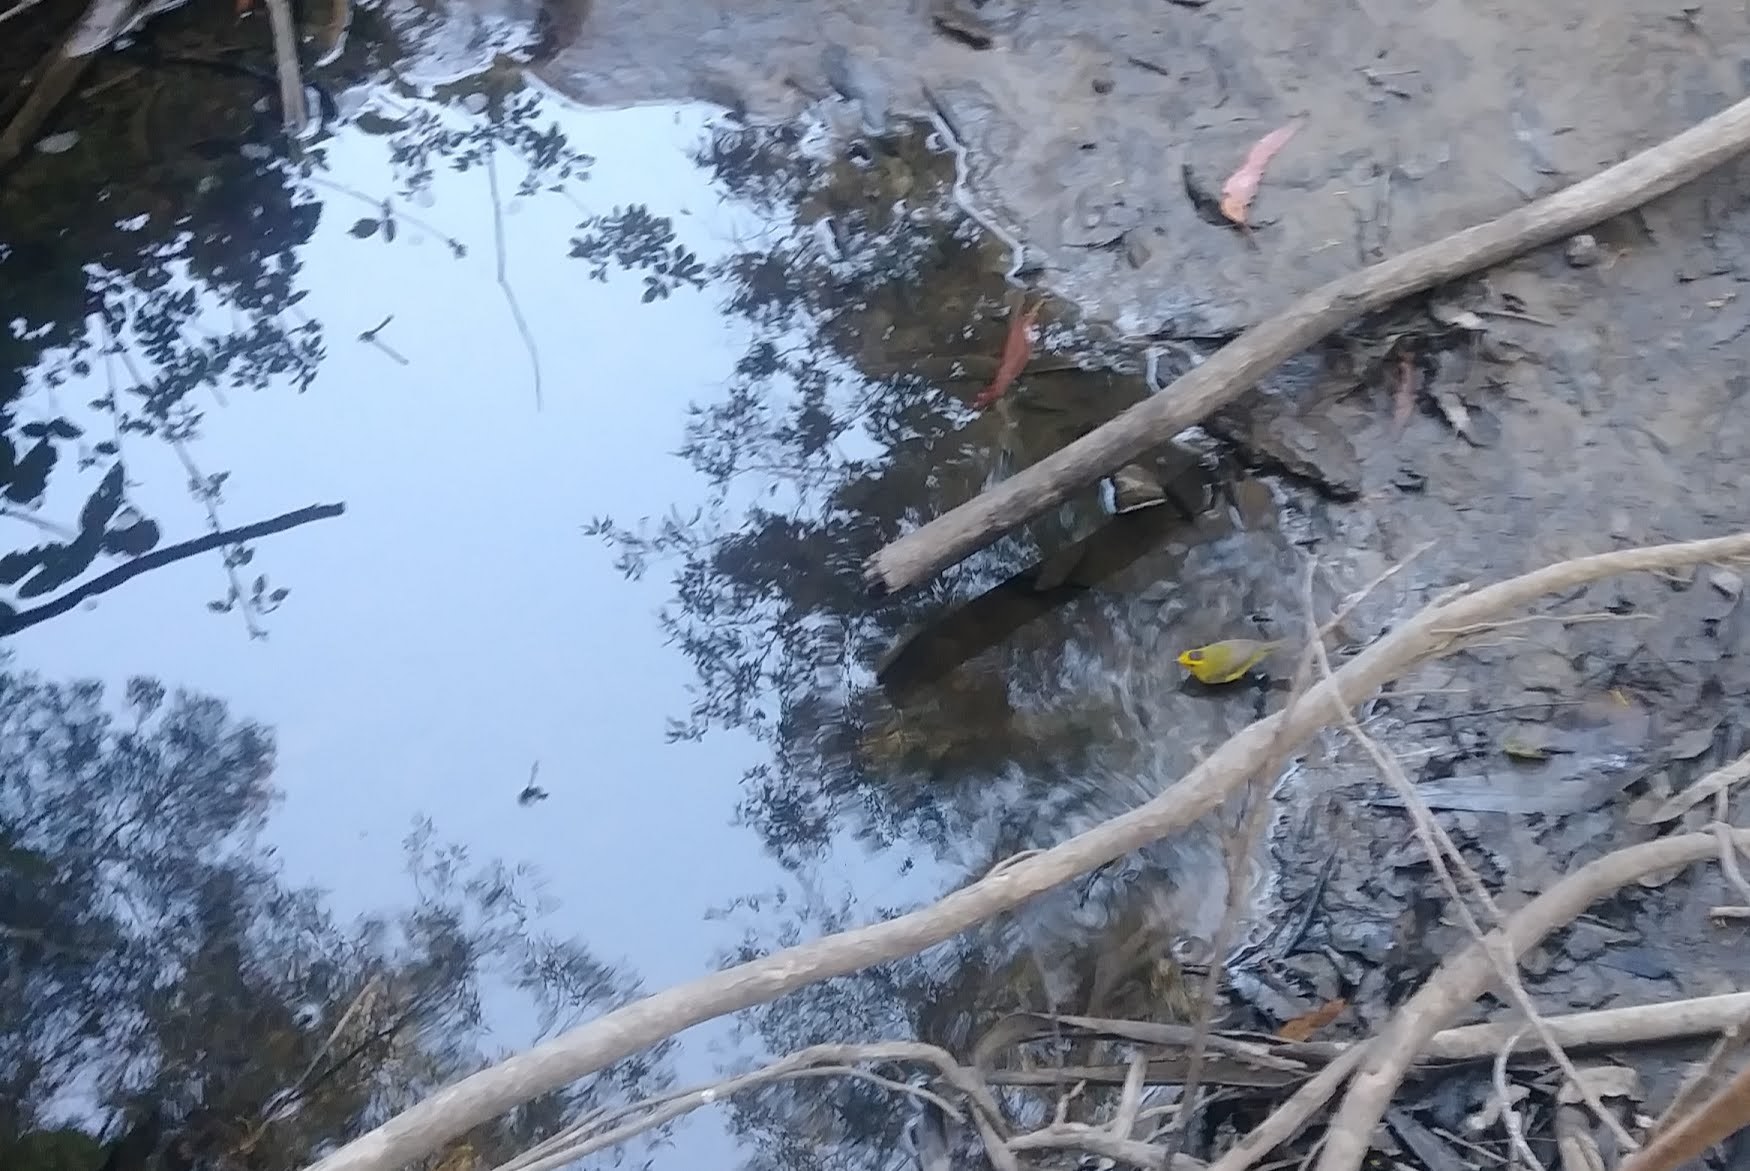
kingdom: Animalia
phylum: Chordata
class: Aves
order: Passeriformes
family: Parulidae
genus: Cardellina
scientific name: Cardellina pusilla
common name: Wilson's warbler
